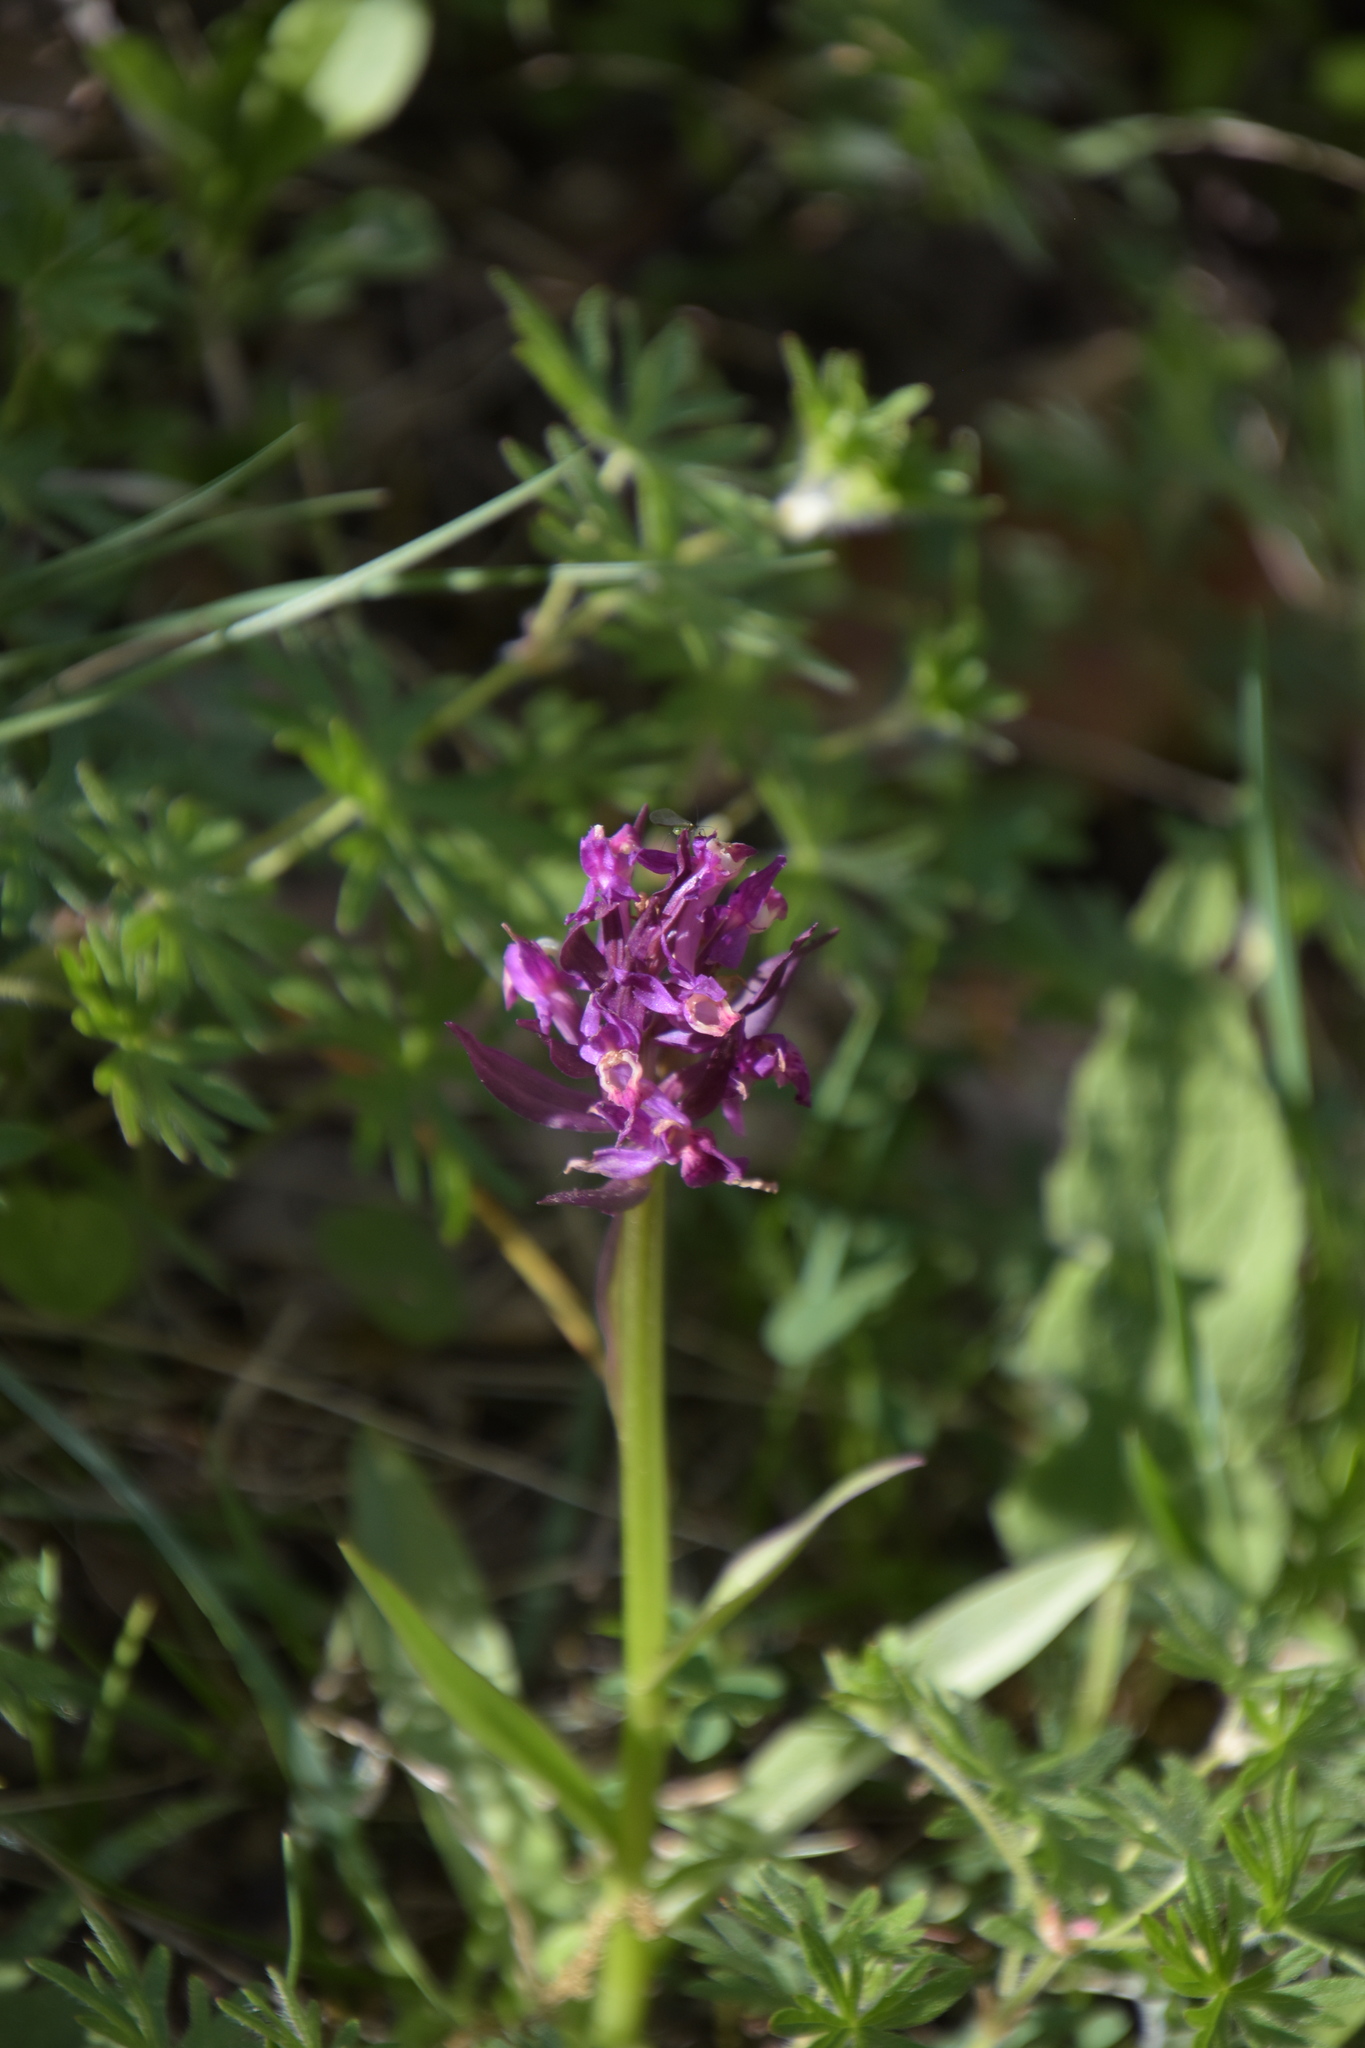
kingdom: Plantae
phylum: Tracheophyta
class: Liliopsida
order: Asparagales
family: Orchidaceae
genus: Dactylorhiza
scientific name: Dactylorhiza sambucina
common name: Elder-flowered orchid
